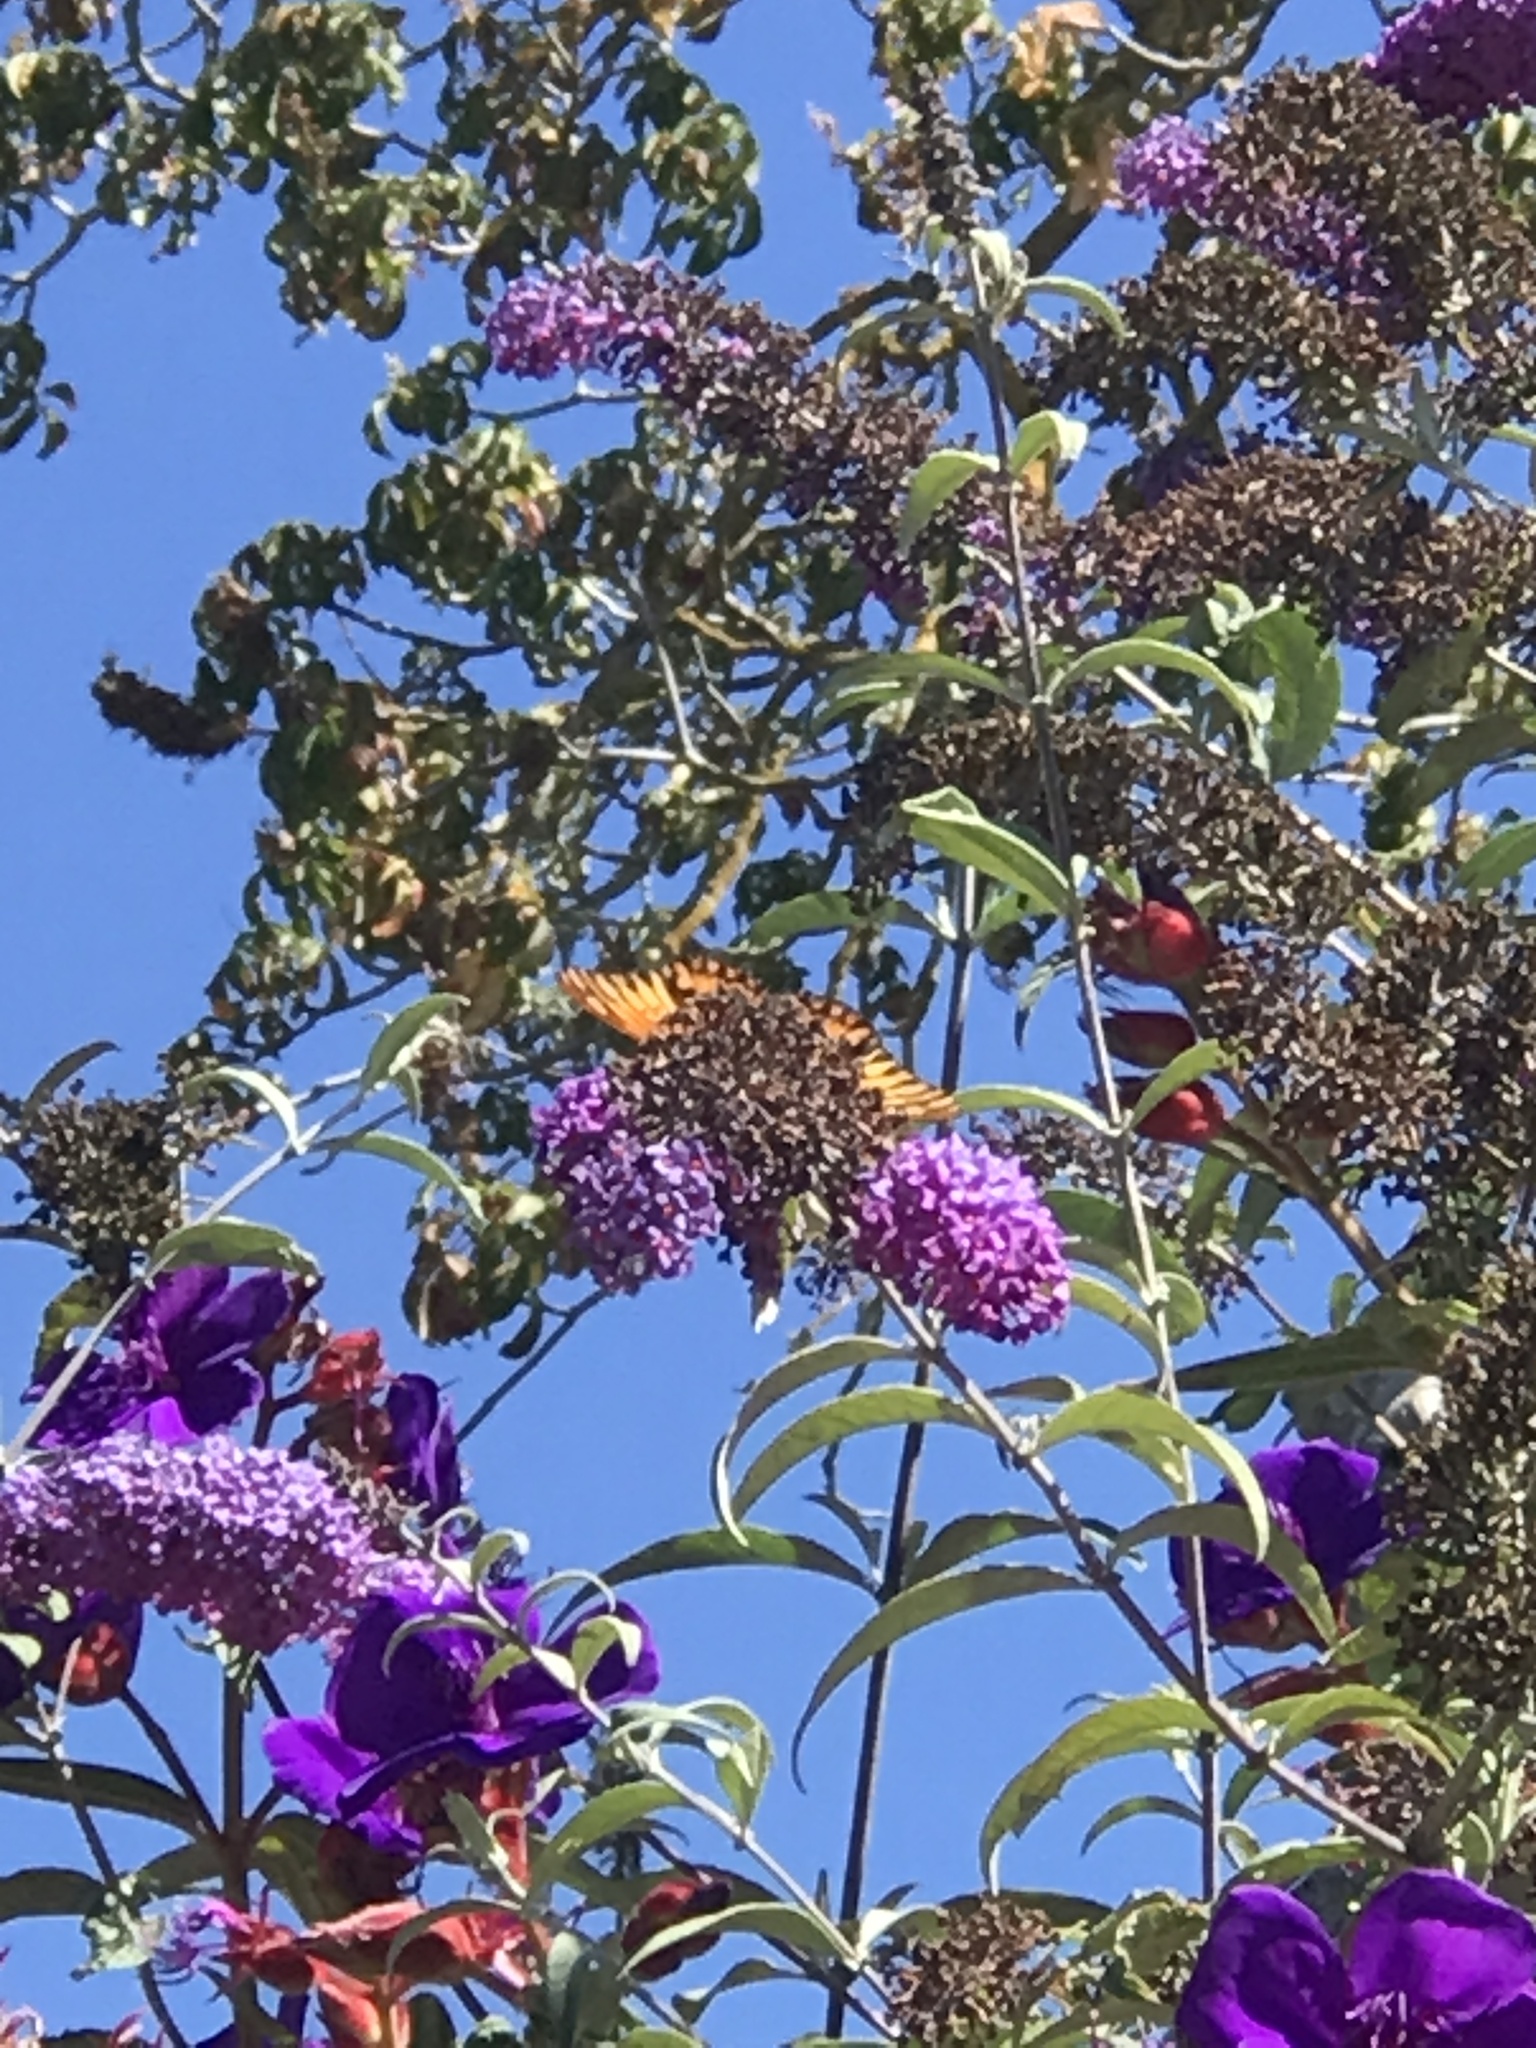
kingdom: Animalia
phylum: Arthropoda
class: Insecta
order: Lepidoptera
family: Nymphalidae
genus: Dione
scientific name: Dione vanillae
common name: Gulf fritillary
